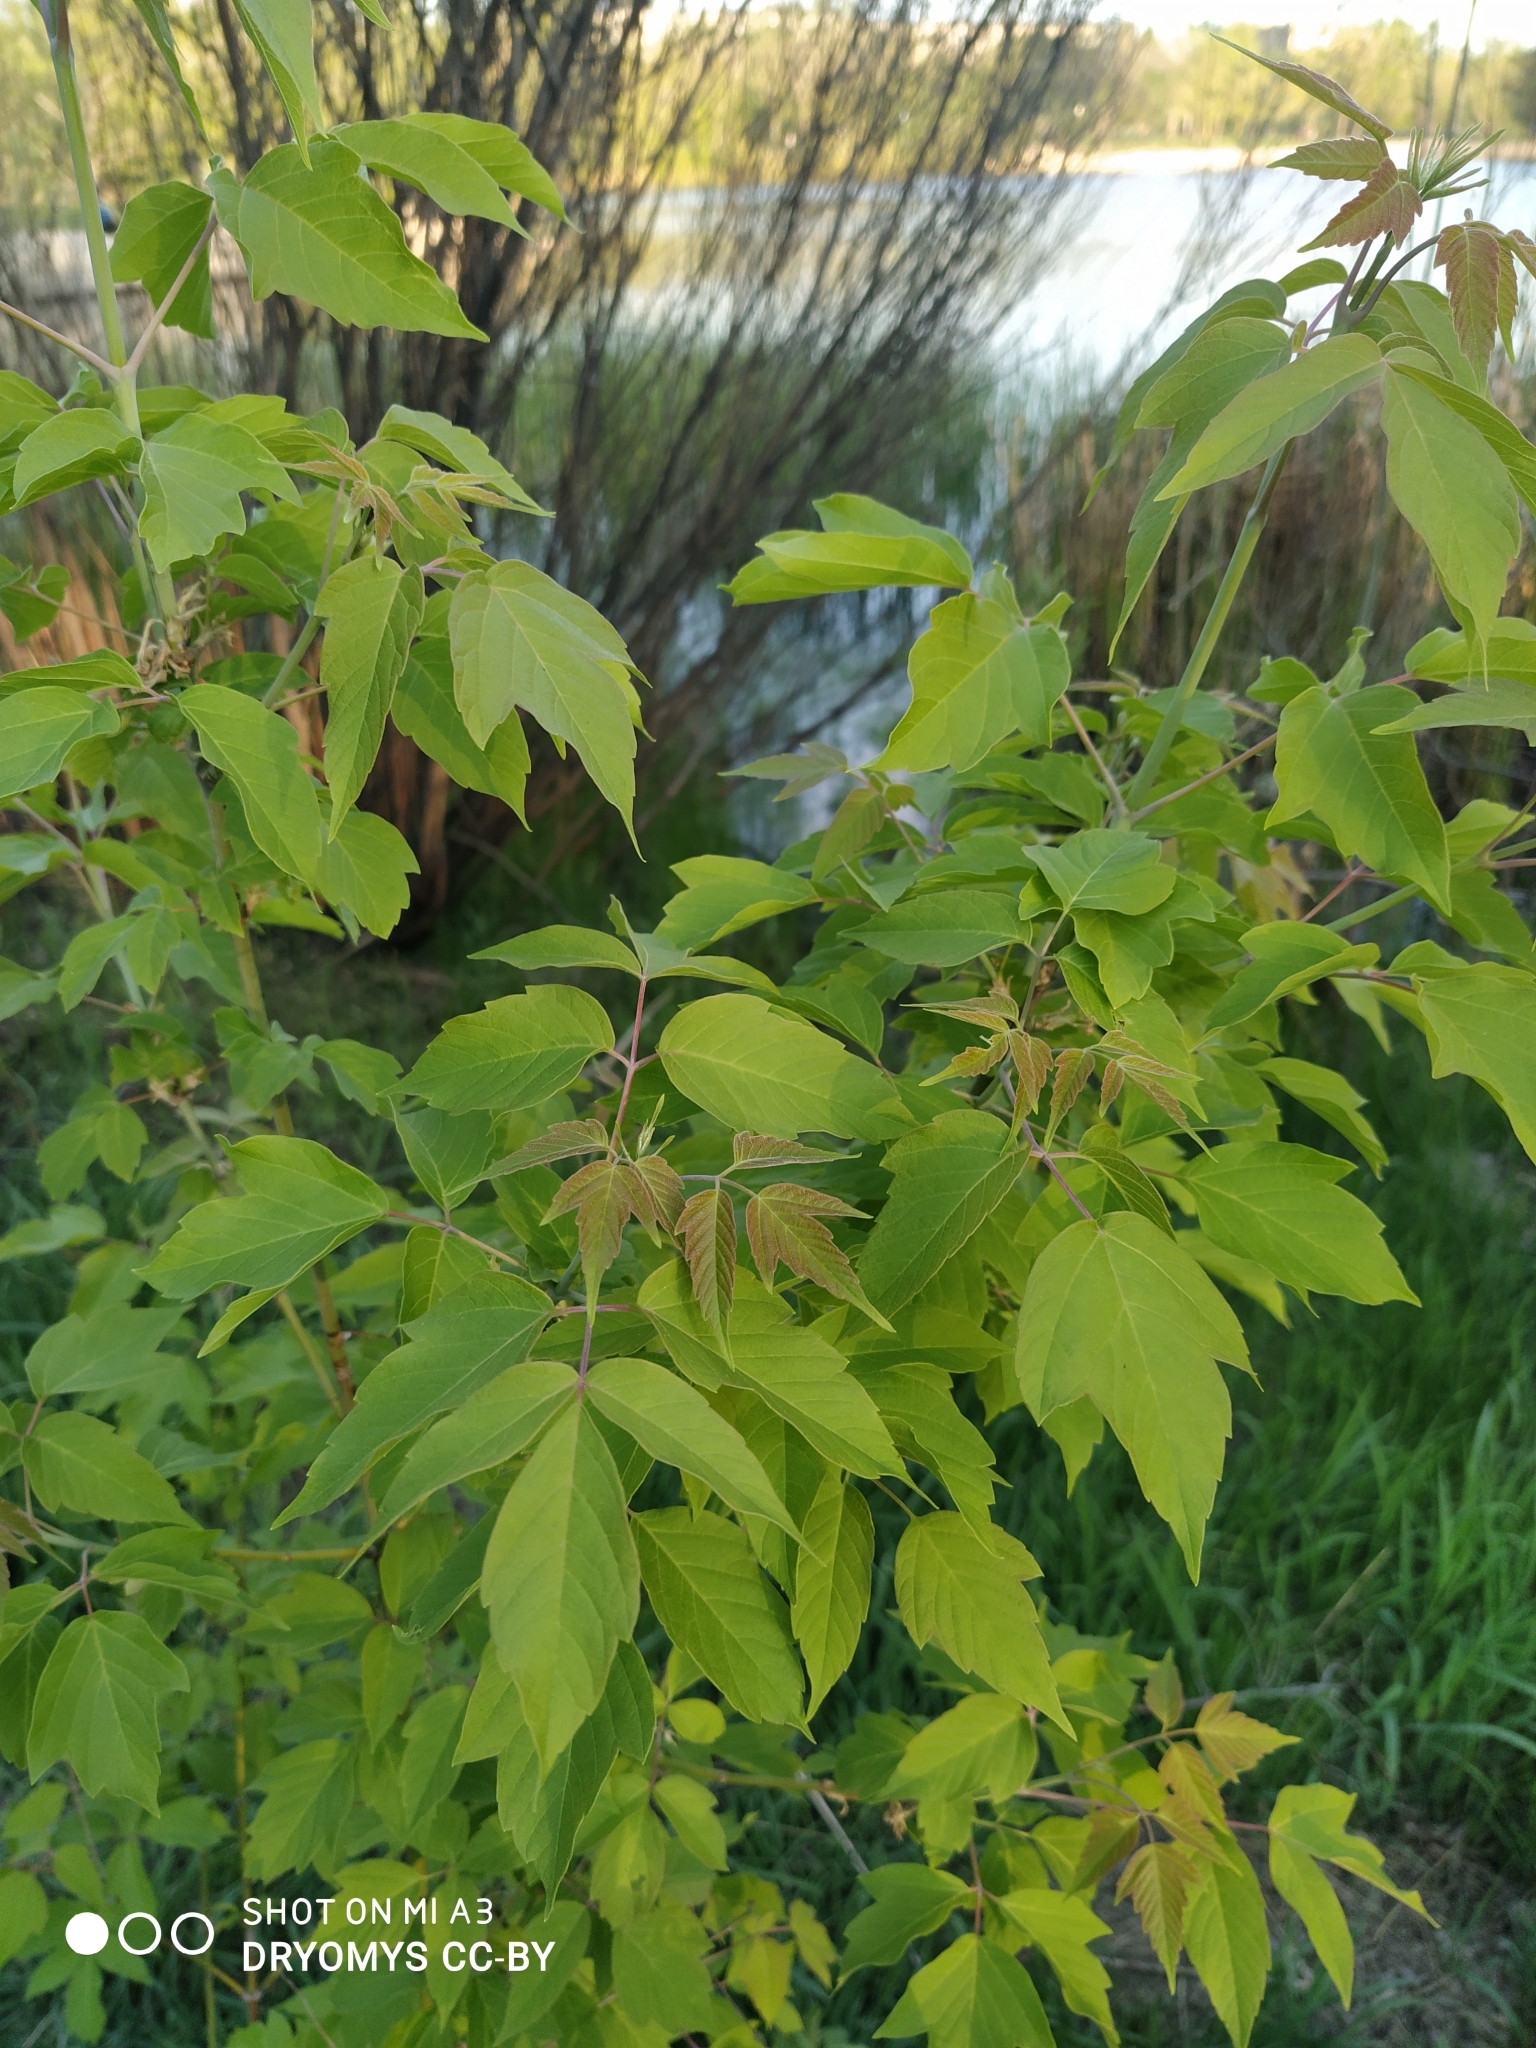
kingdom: Plantae
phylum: Tracheophyta
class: Magnoliopsida
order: Sapindales
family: Sapindaceae
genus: Acer
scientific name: Acer negundo
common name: Ashleaf maple
